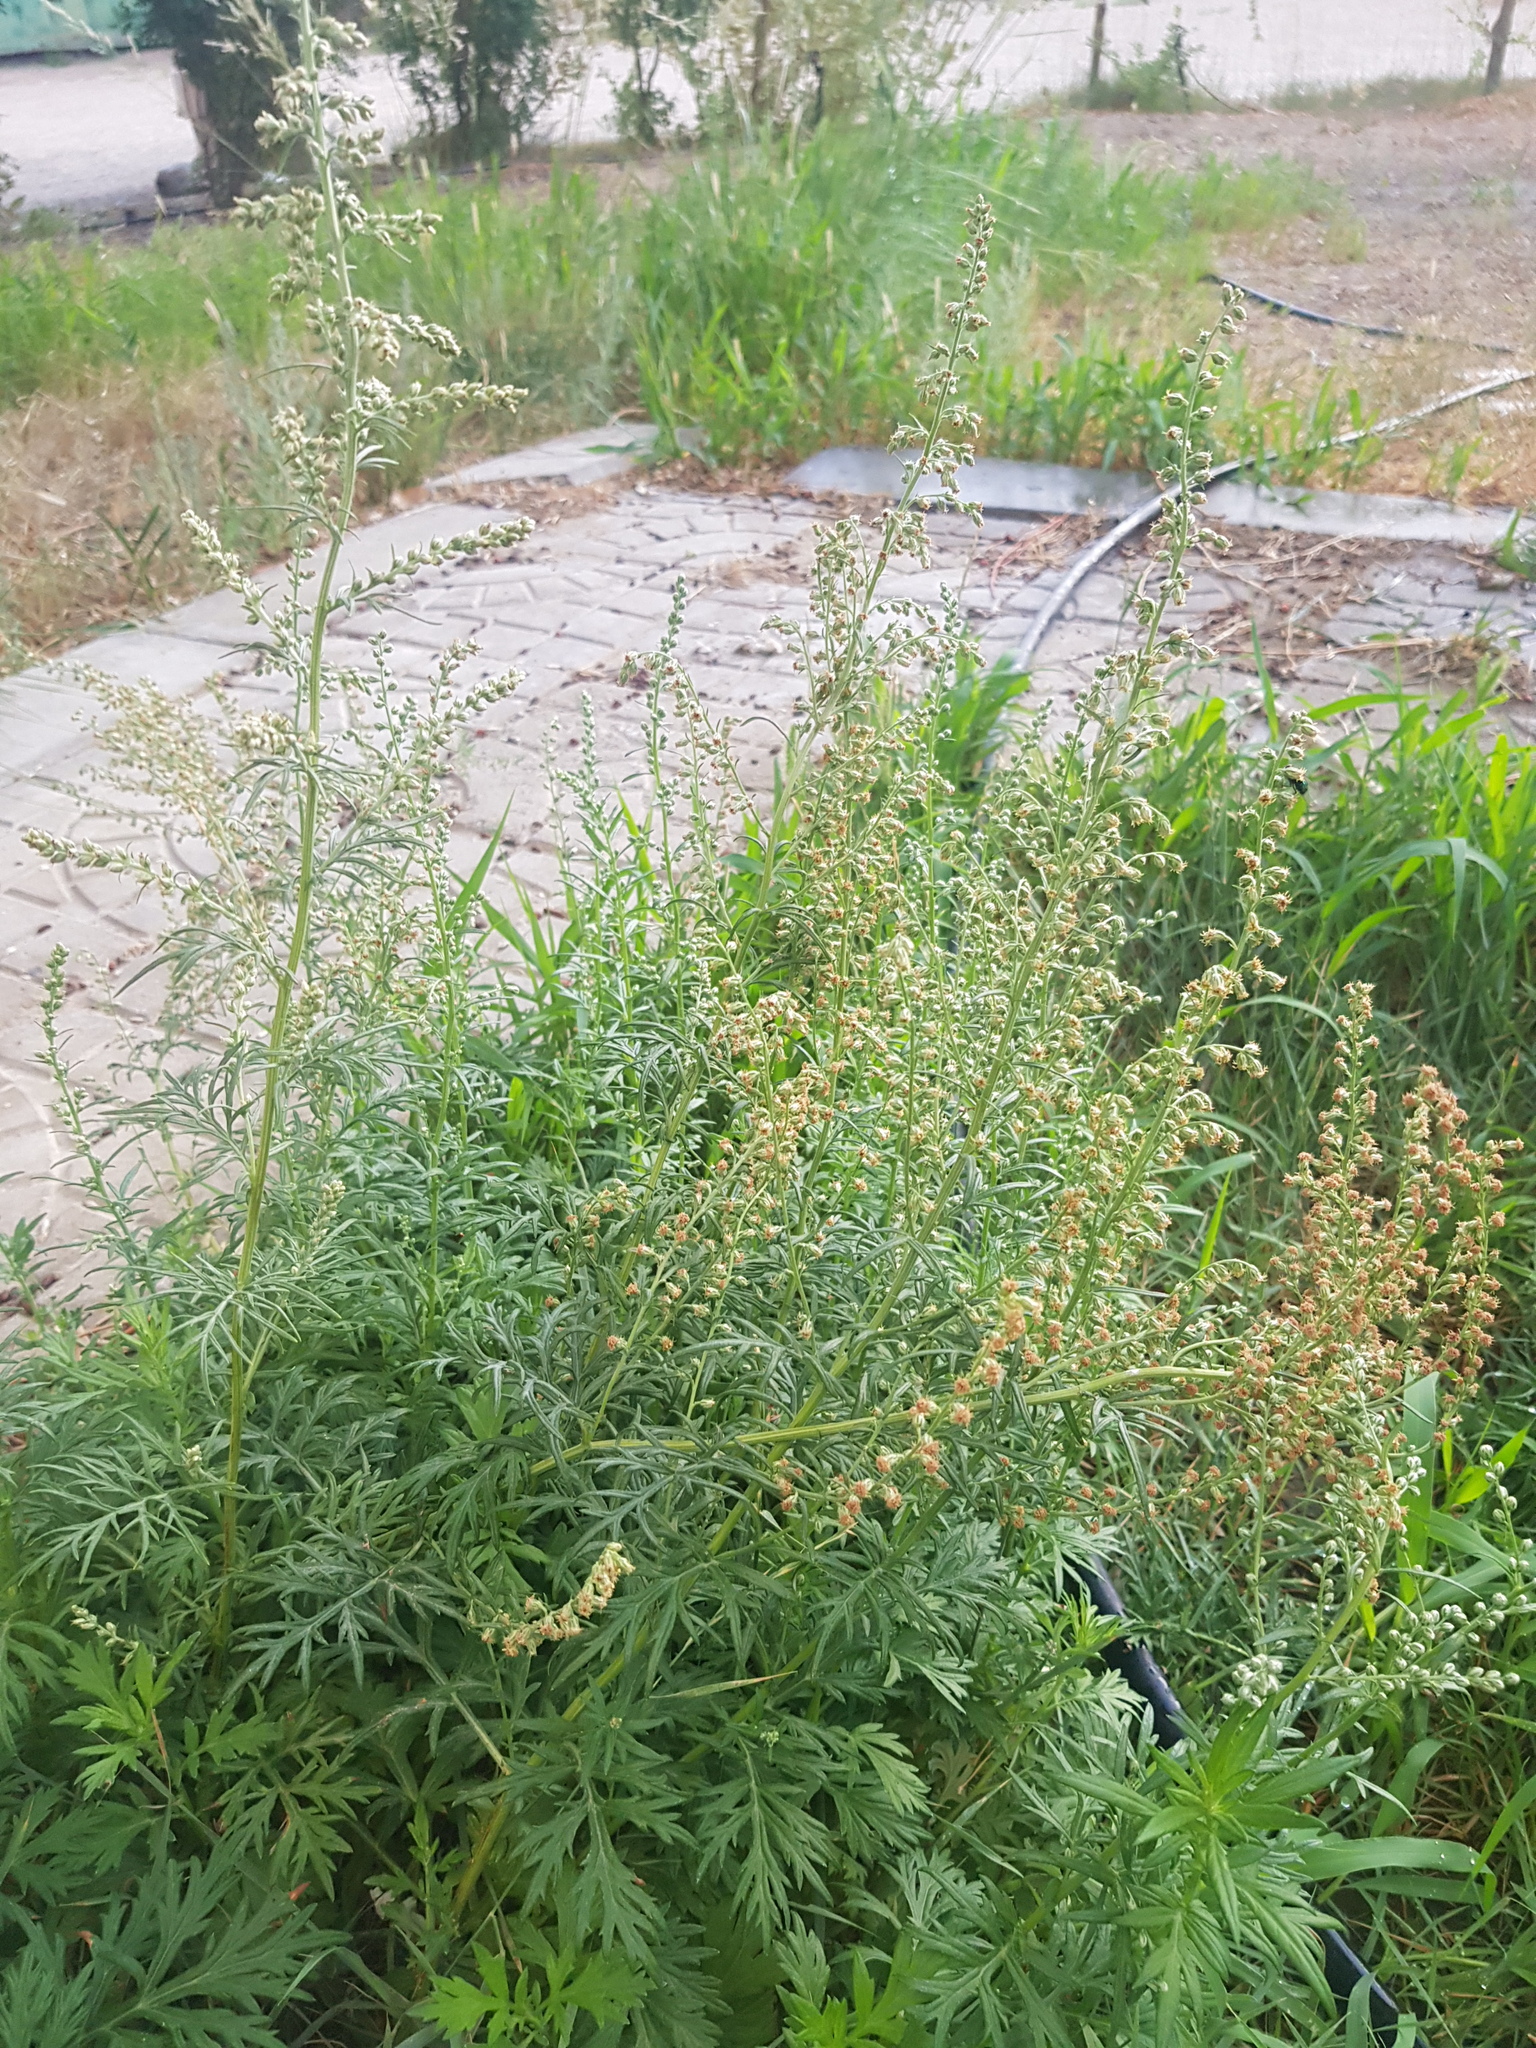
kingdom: Plantae
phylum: Tracheophyta
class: Magnoliopsida
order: Asterales
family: Asteraceae
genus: Artemisia
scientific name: Artemisia vulgaris
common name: Mugwort
